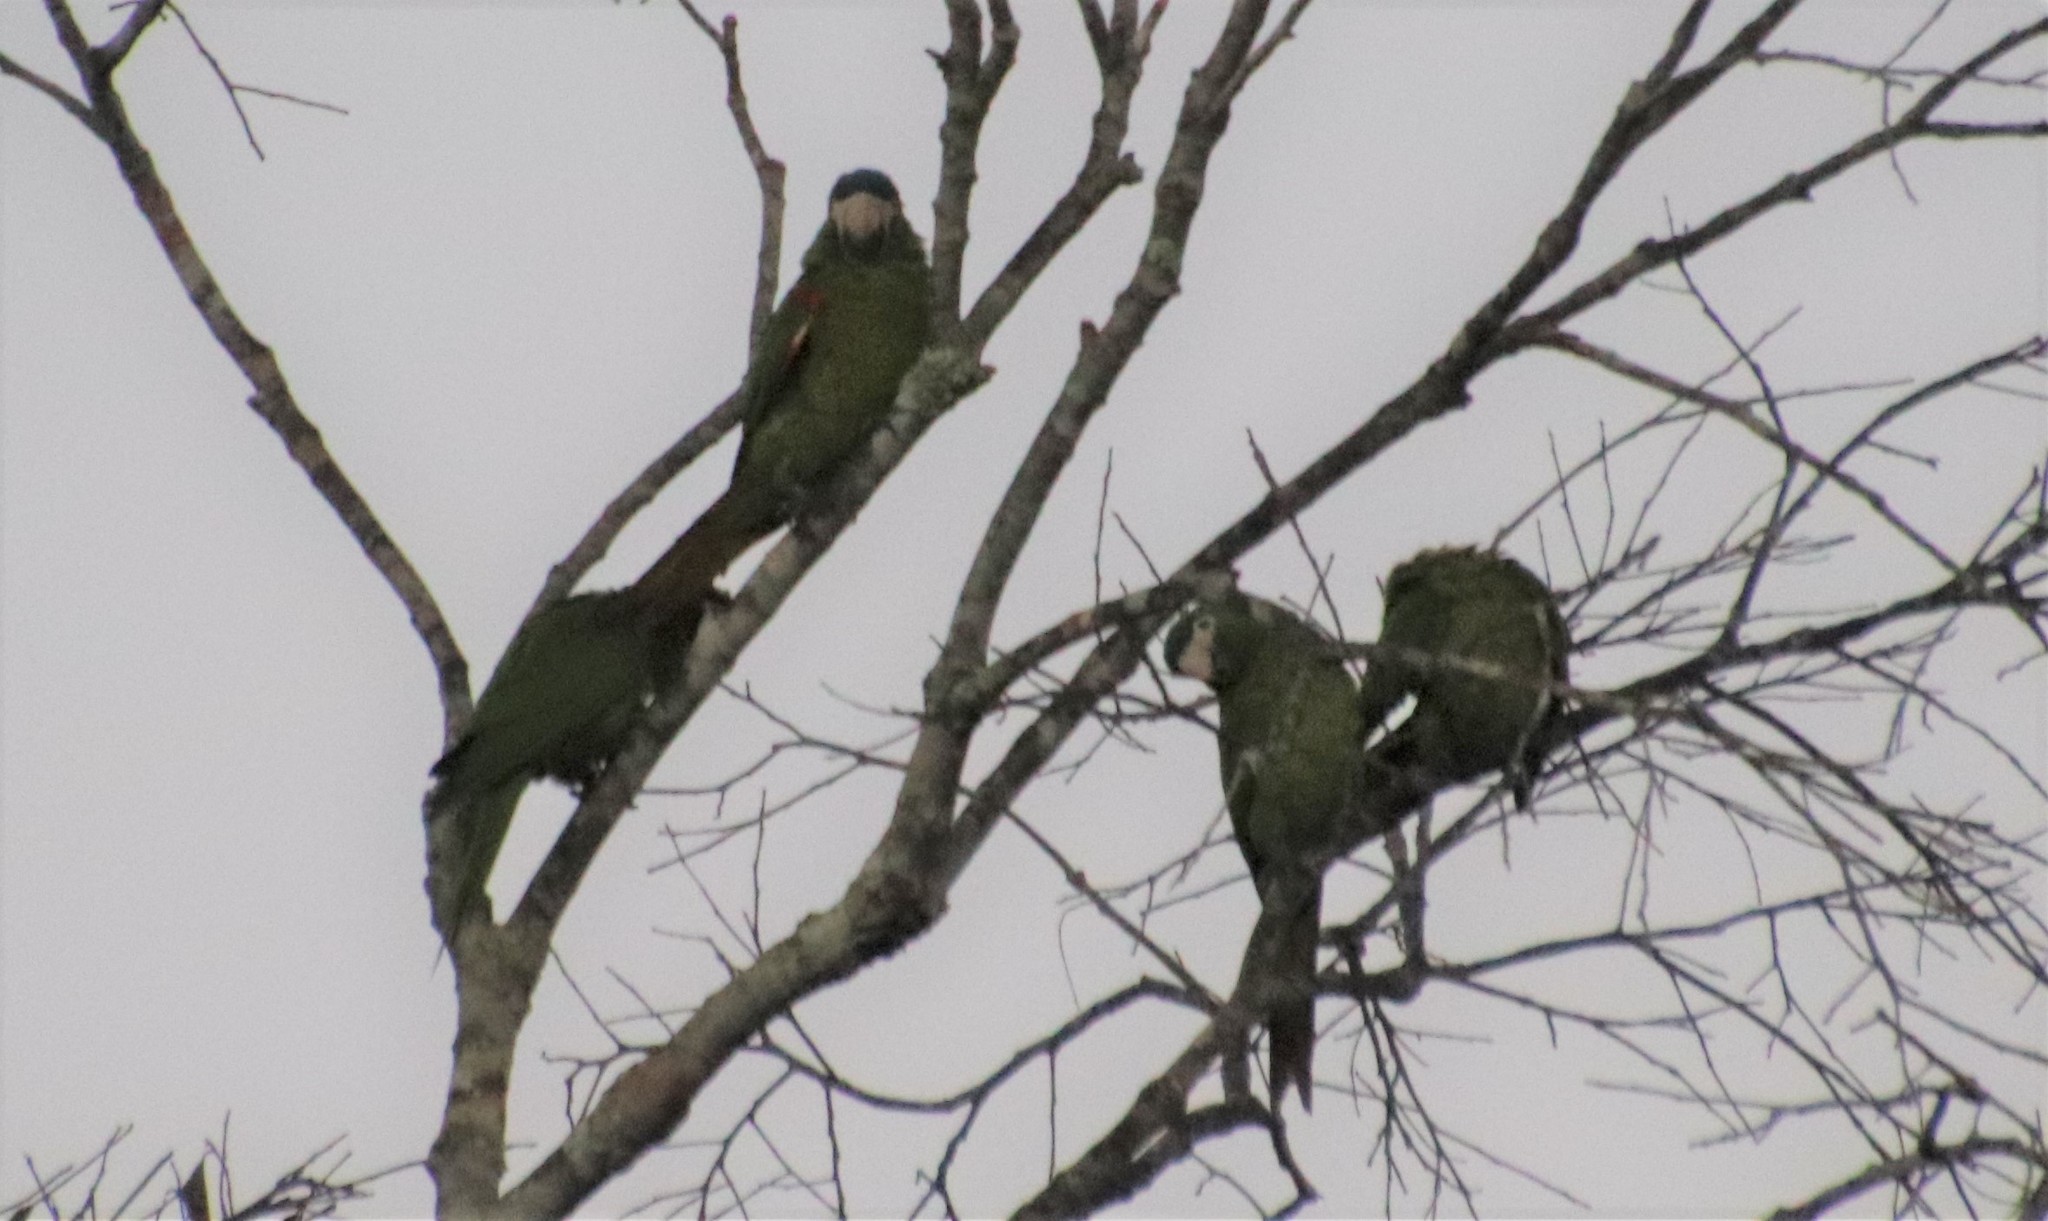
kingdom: Animalia
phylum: Chordata
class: Aves
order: Psittaciformes
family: Psittacidae
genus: Diopsittaca
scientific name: Diopsittaca nobilis
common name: Red-shouldered macaw
